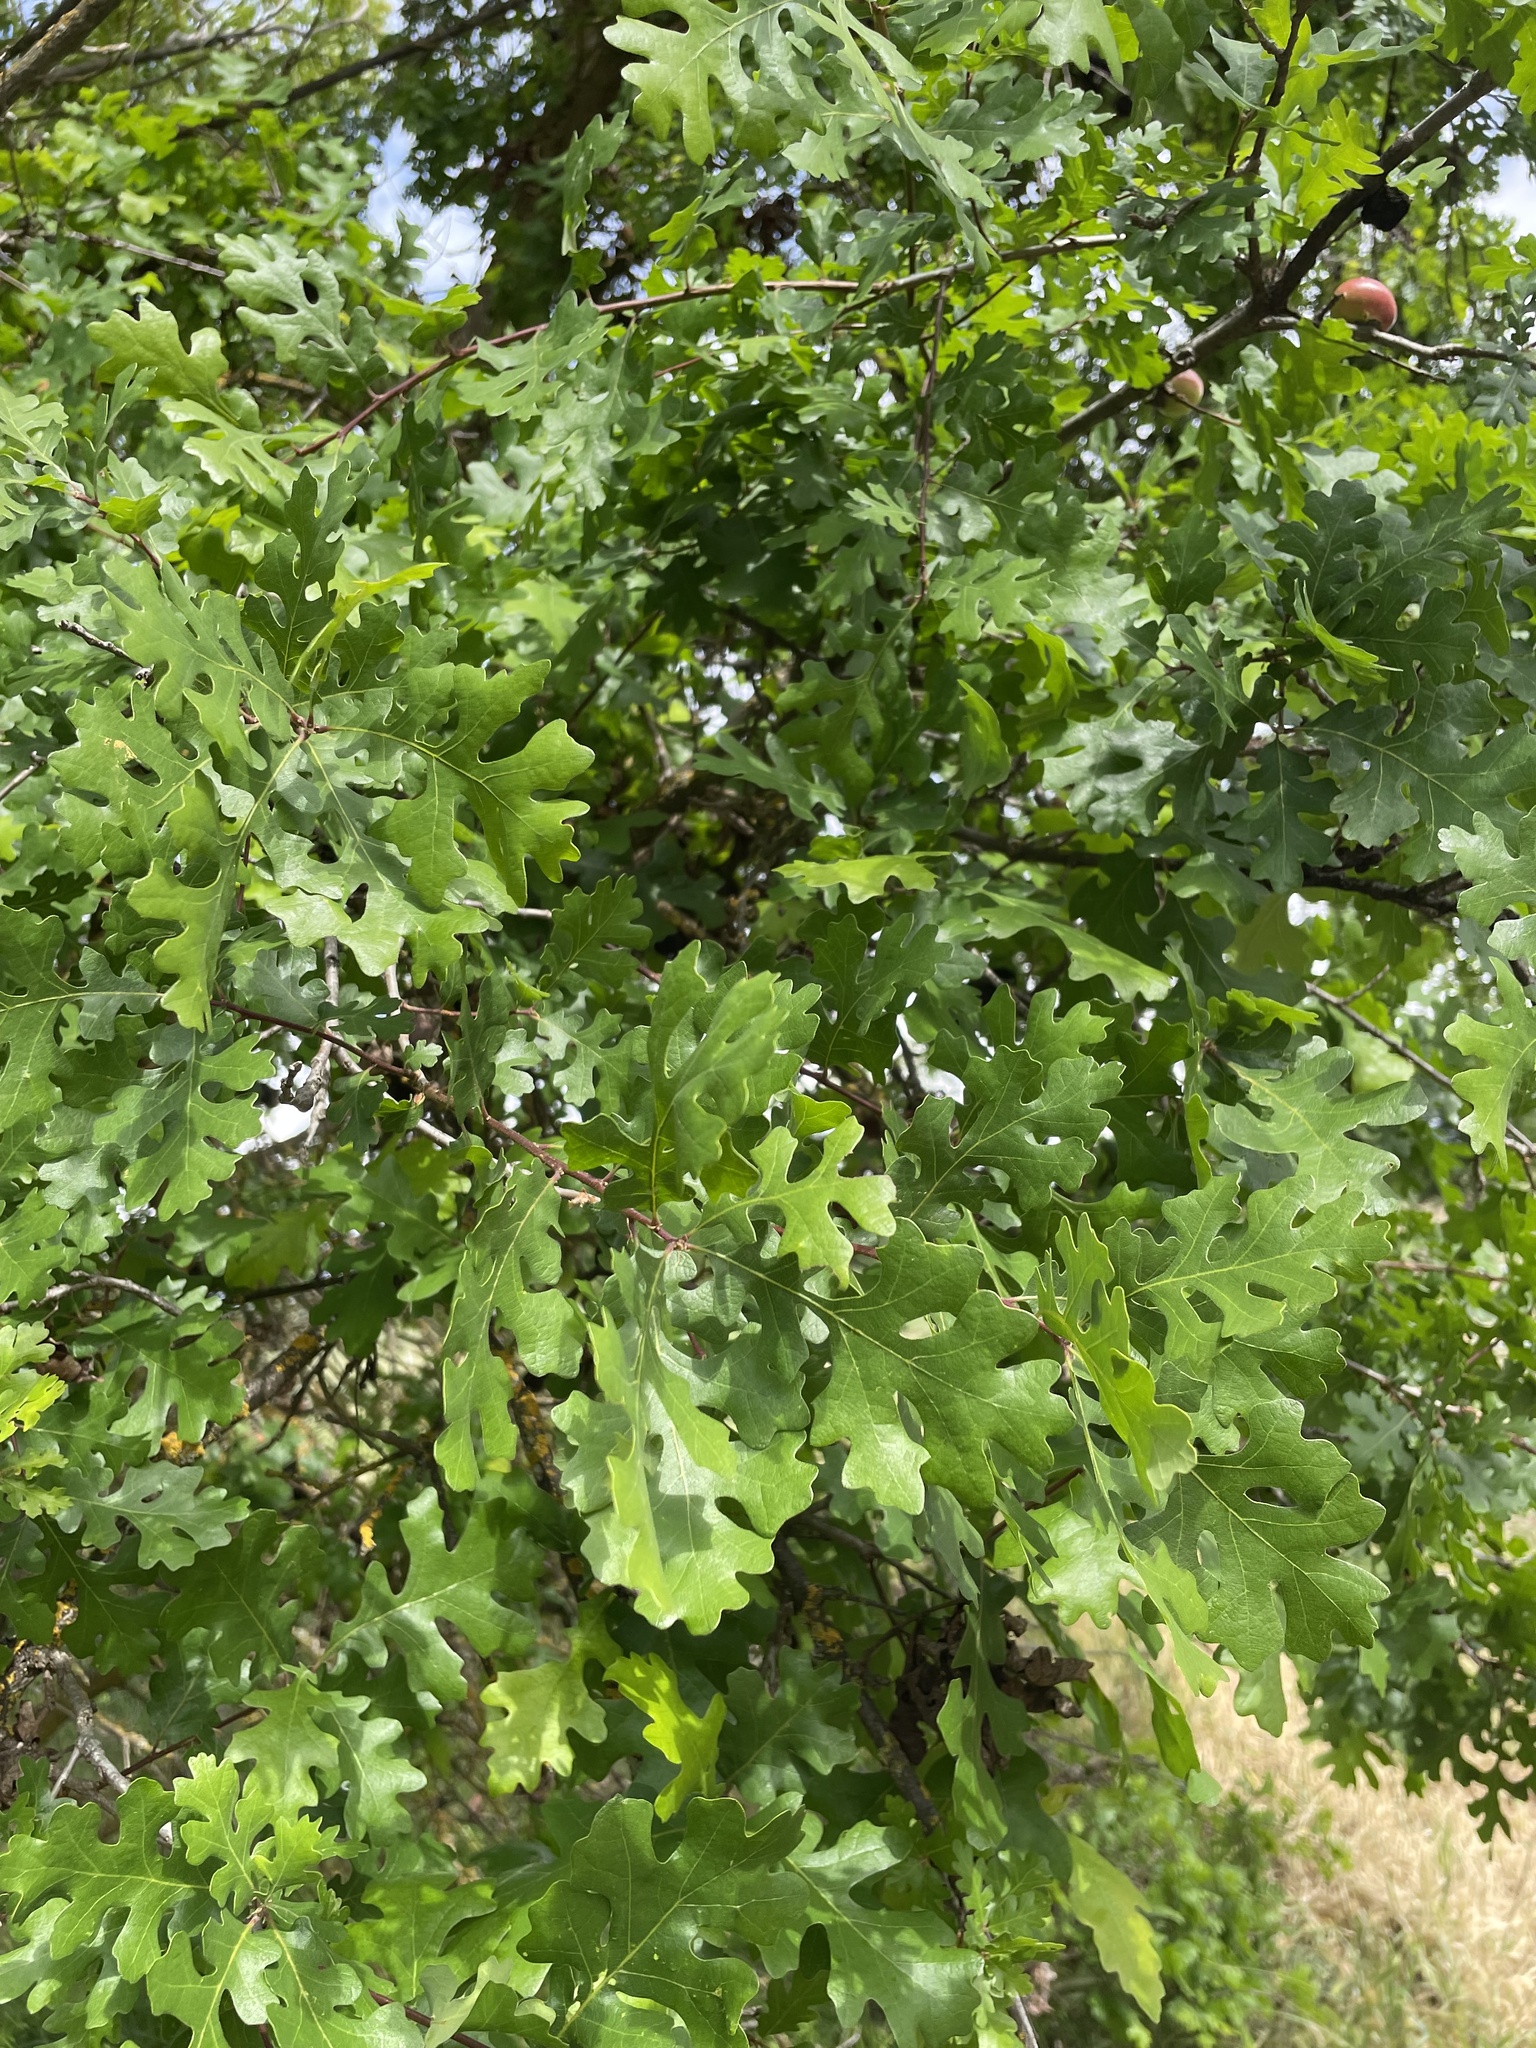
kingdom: Plantae
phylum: Tracheophyta
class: Magnoliopsida
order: Fagales
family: Fagaceae
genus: Quercus
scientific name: Quercus lobata
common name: Valley oak
